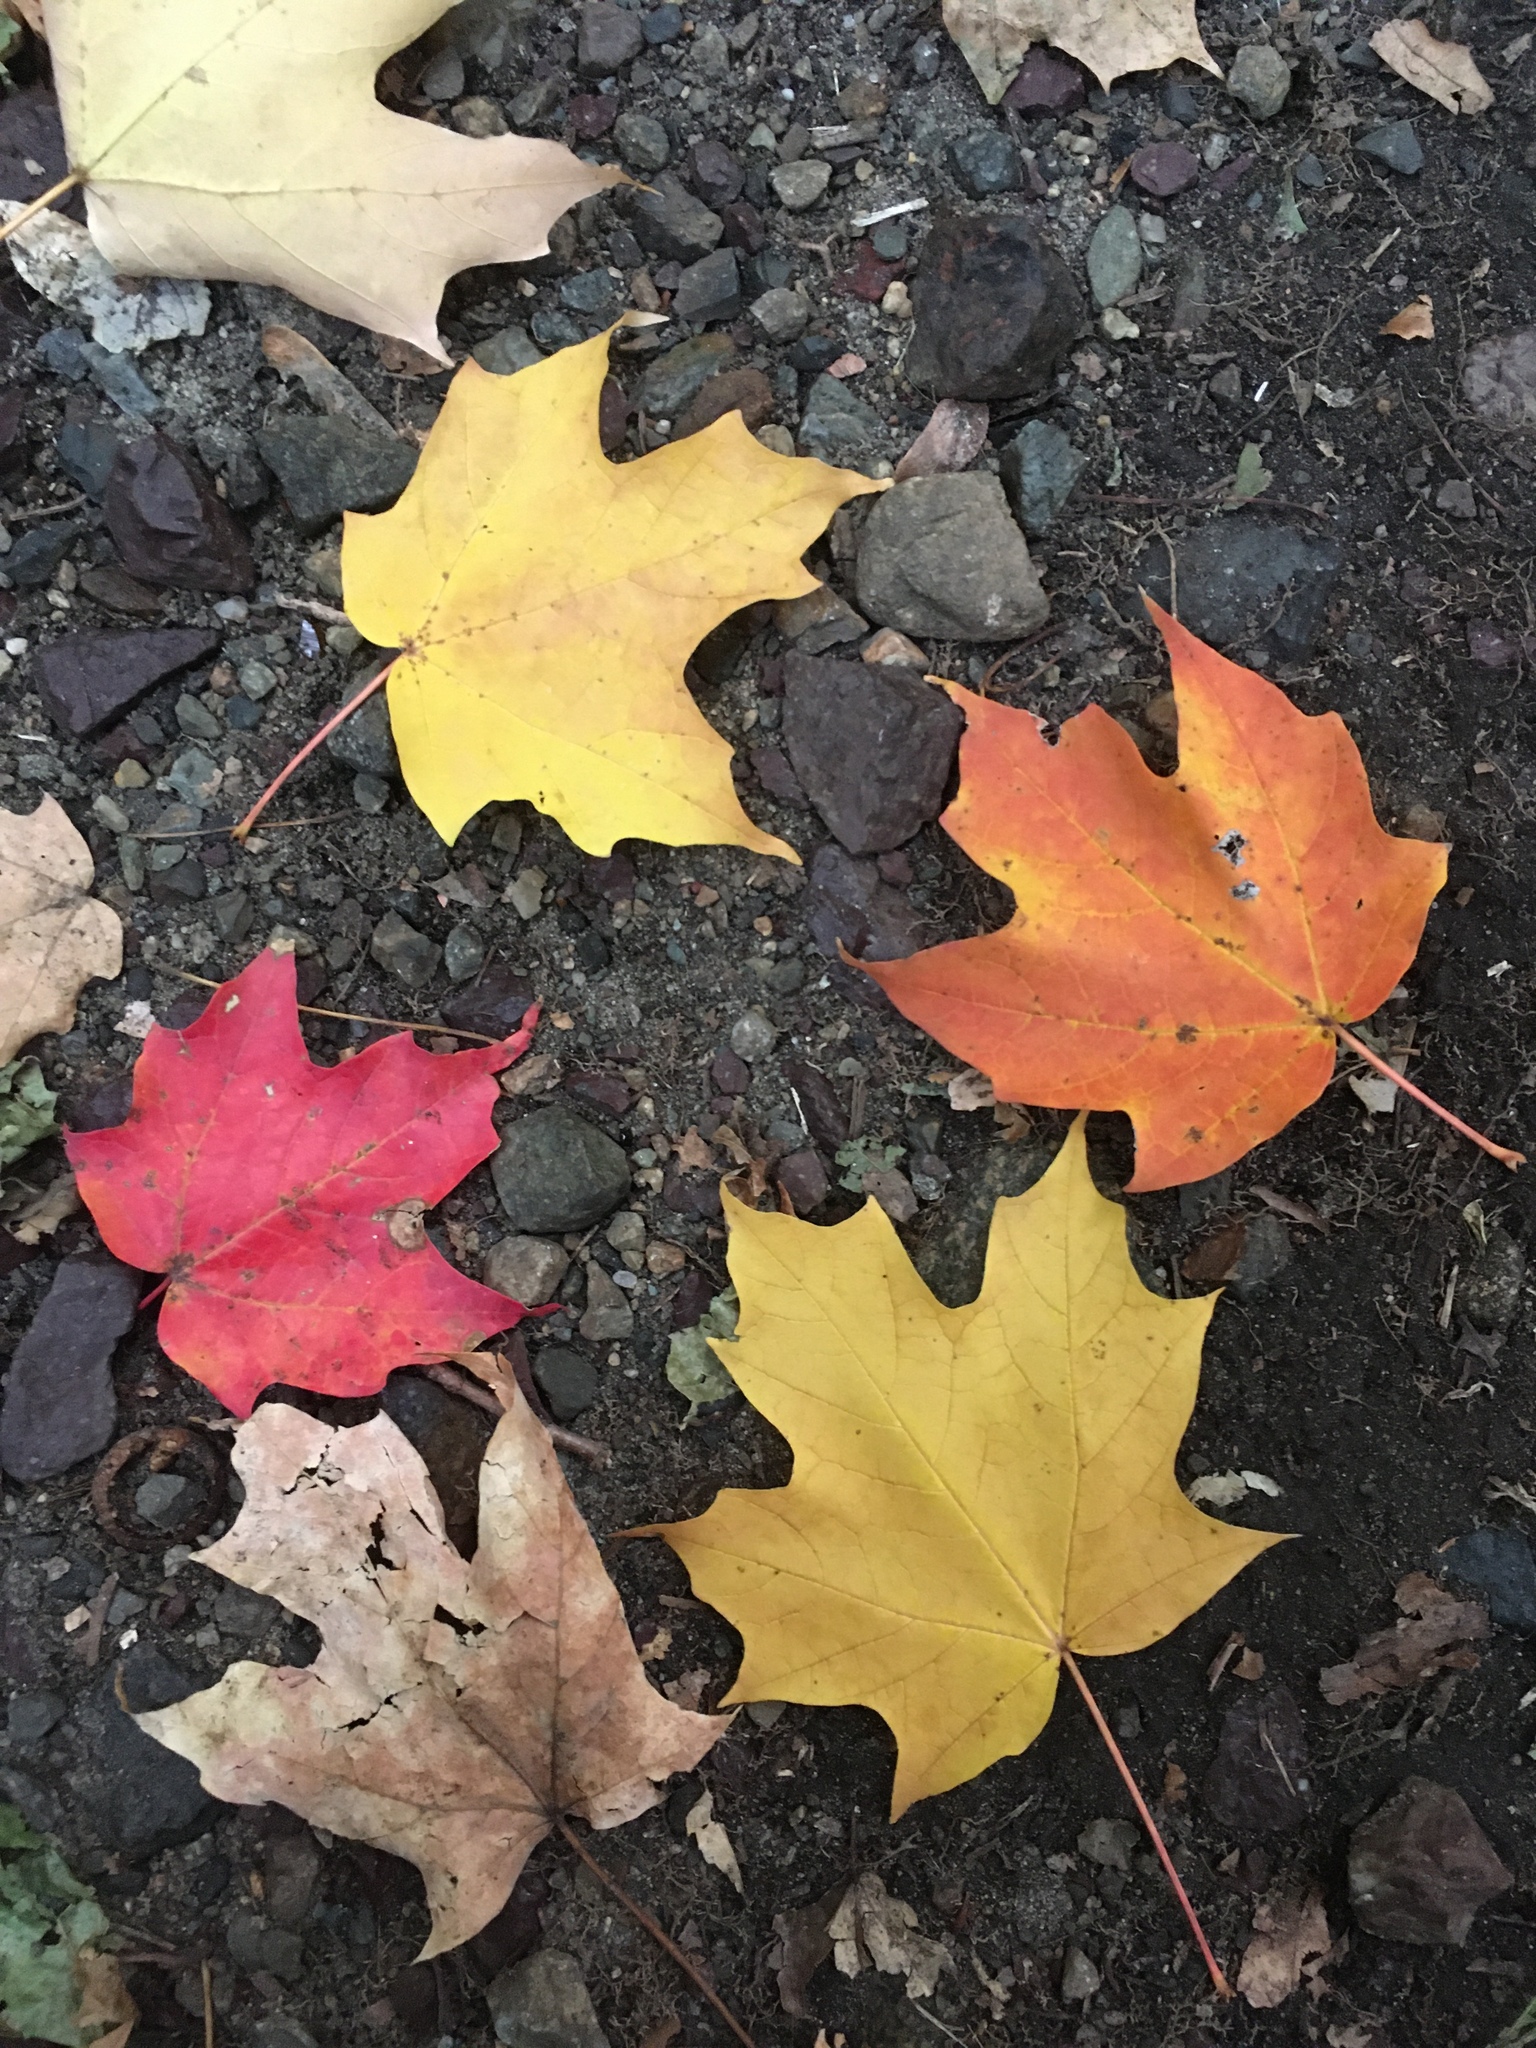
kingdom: Plantae
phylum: Tracheophyta
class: Magnoliopsida
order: Sapindales
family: Sapindaceae
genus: Acer
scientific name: Acer saccharum
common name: Sugar maple
